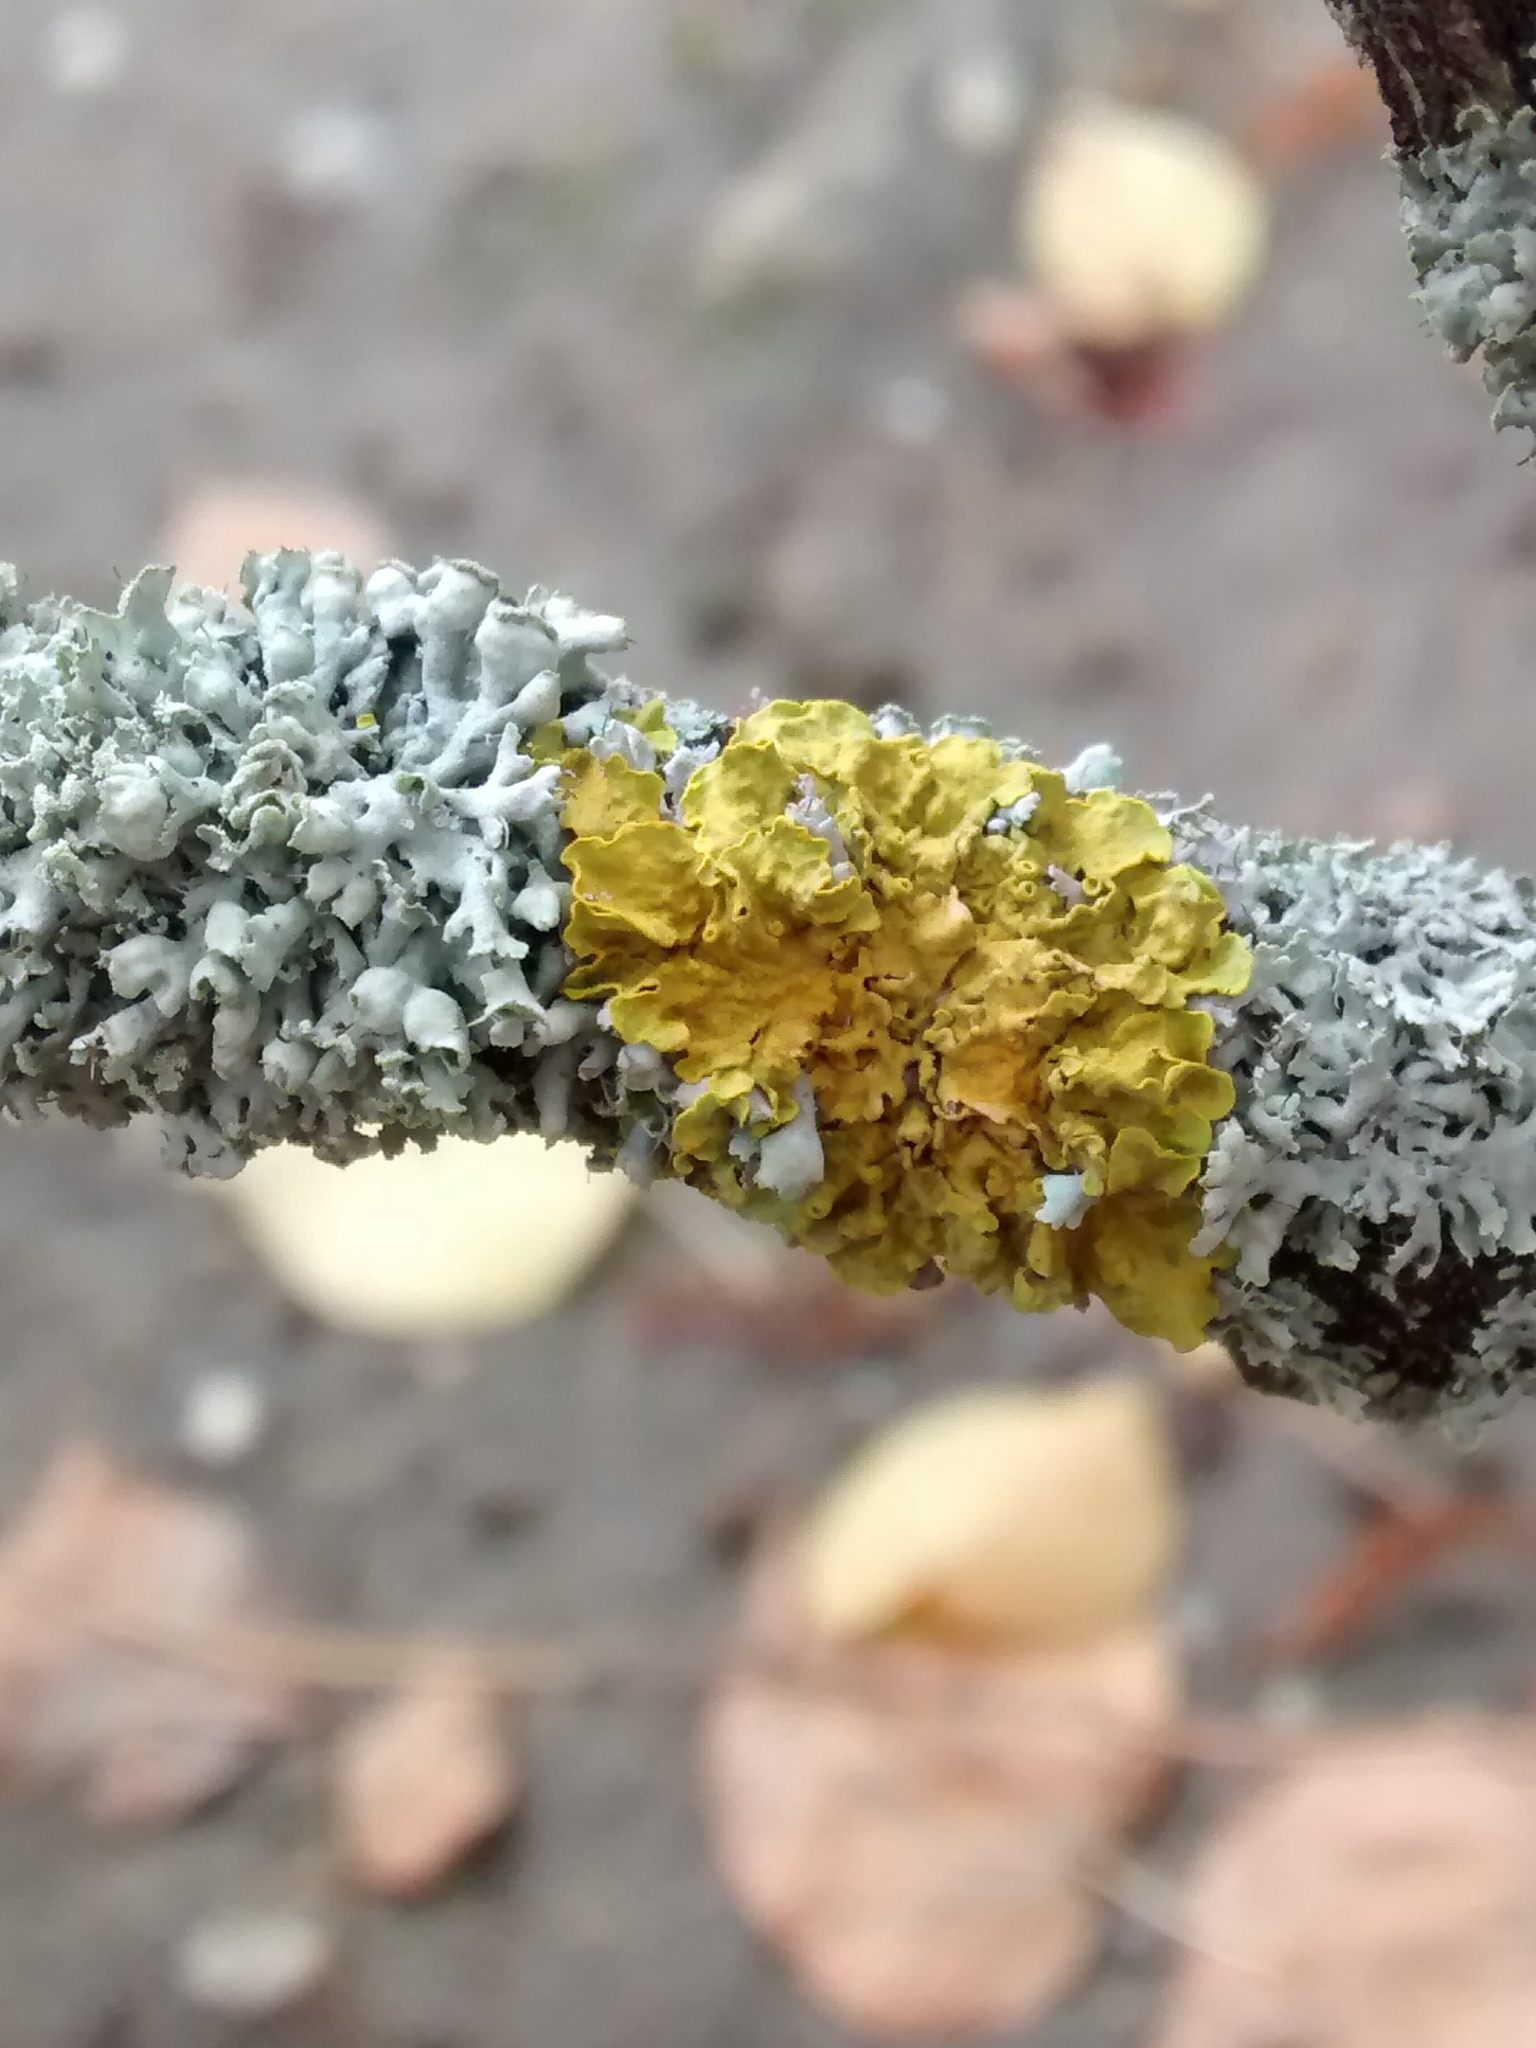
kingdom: Fungi
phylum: Ascomycota
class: Lecanoromycetes
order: Teloschistales
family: Teloschistaceae
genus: Xanthoria
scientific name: Xanthoria parietina
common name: Common orange lichen
